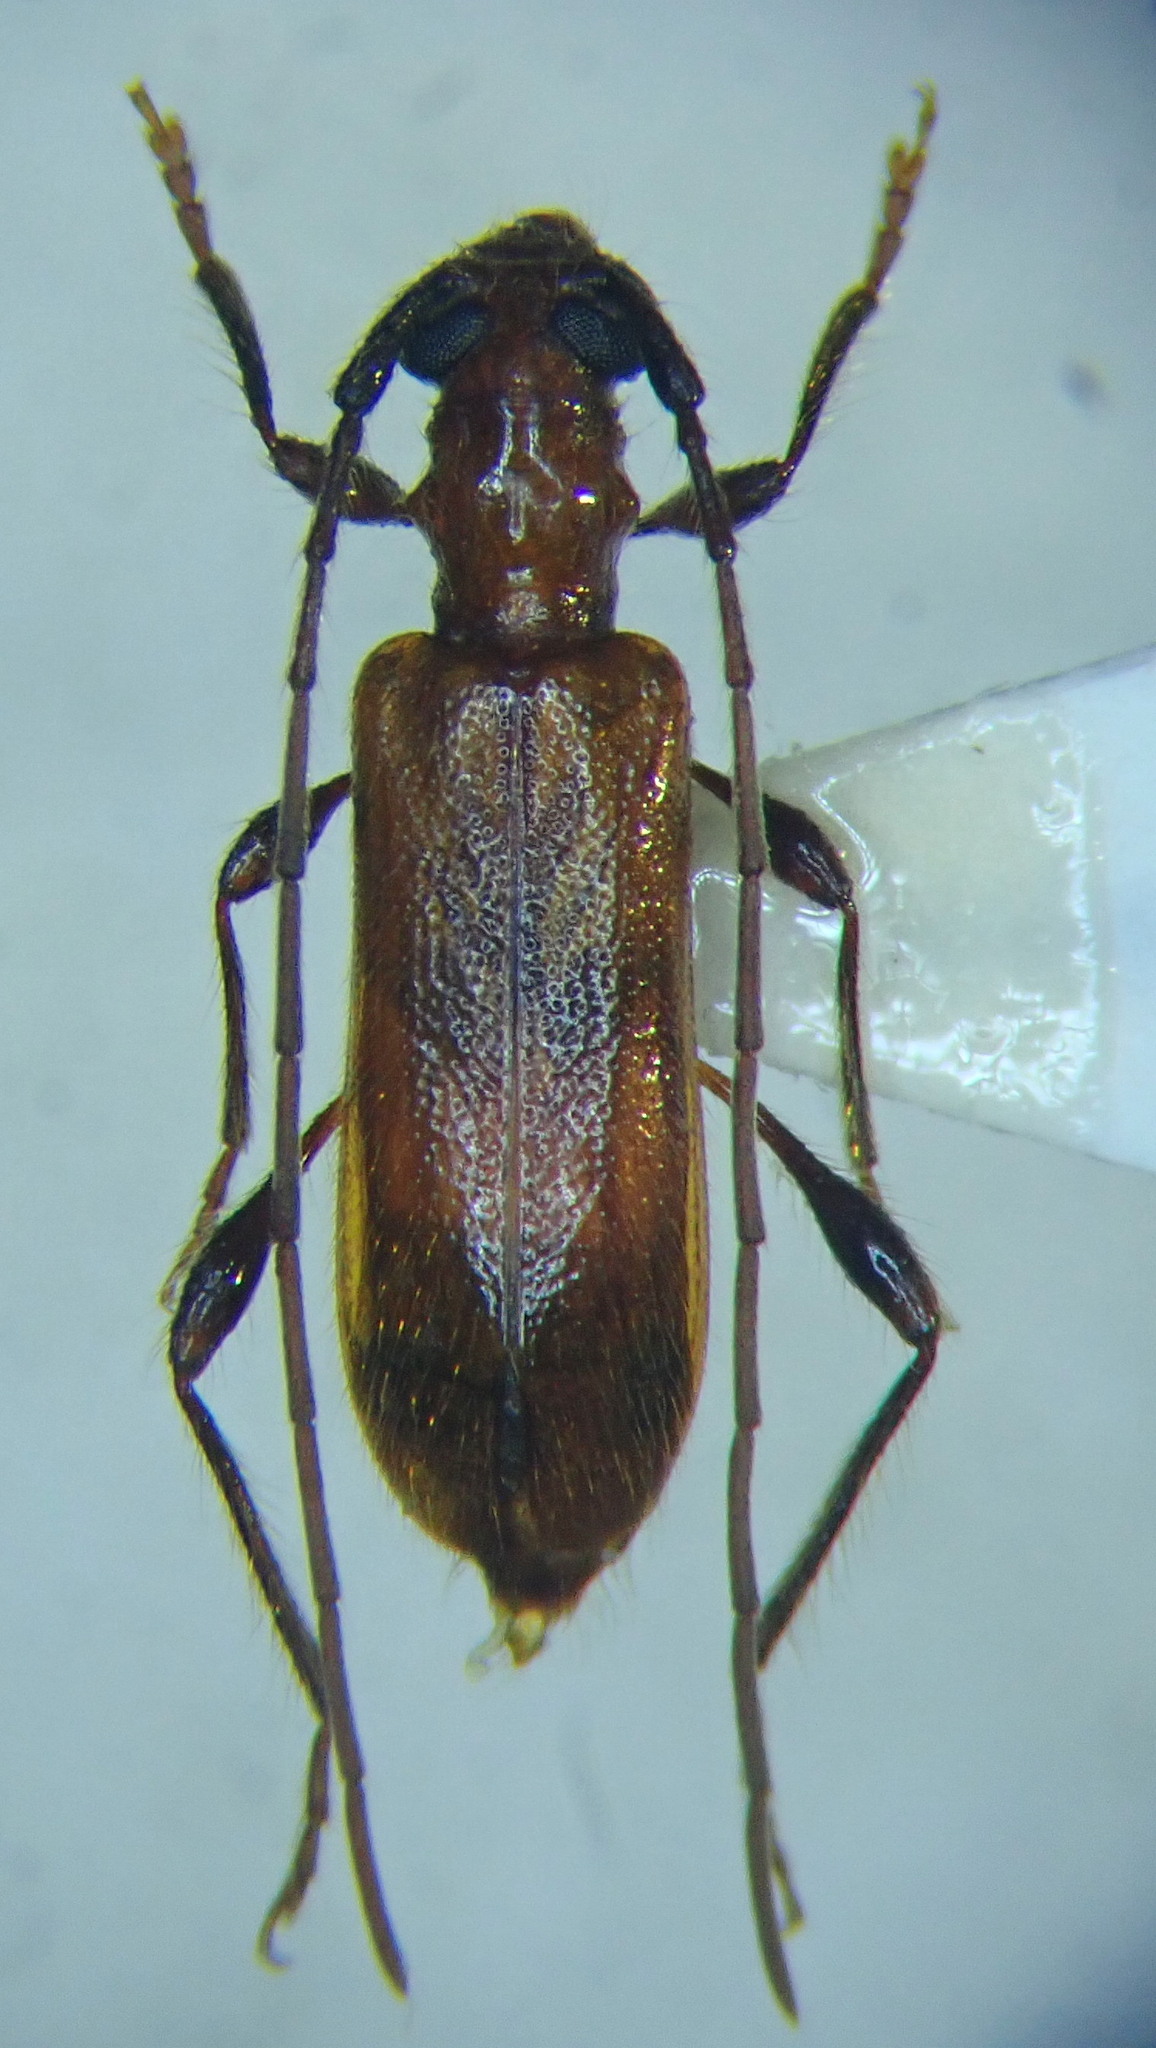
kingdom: Animalia
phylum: Arthropoda
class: Insecta
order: Coleoptera
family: Cerambycidae
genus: Obrium
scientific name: Obrium cantharinum
